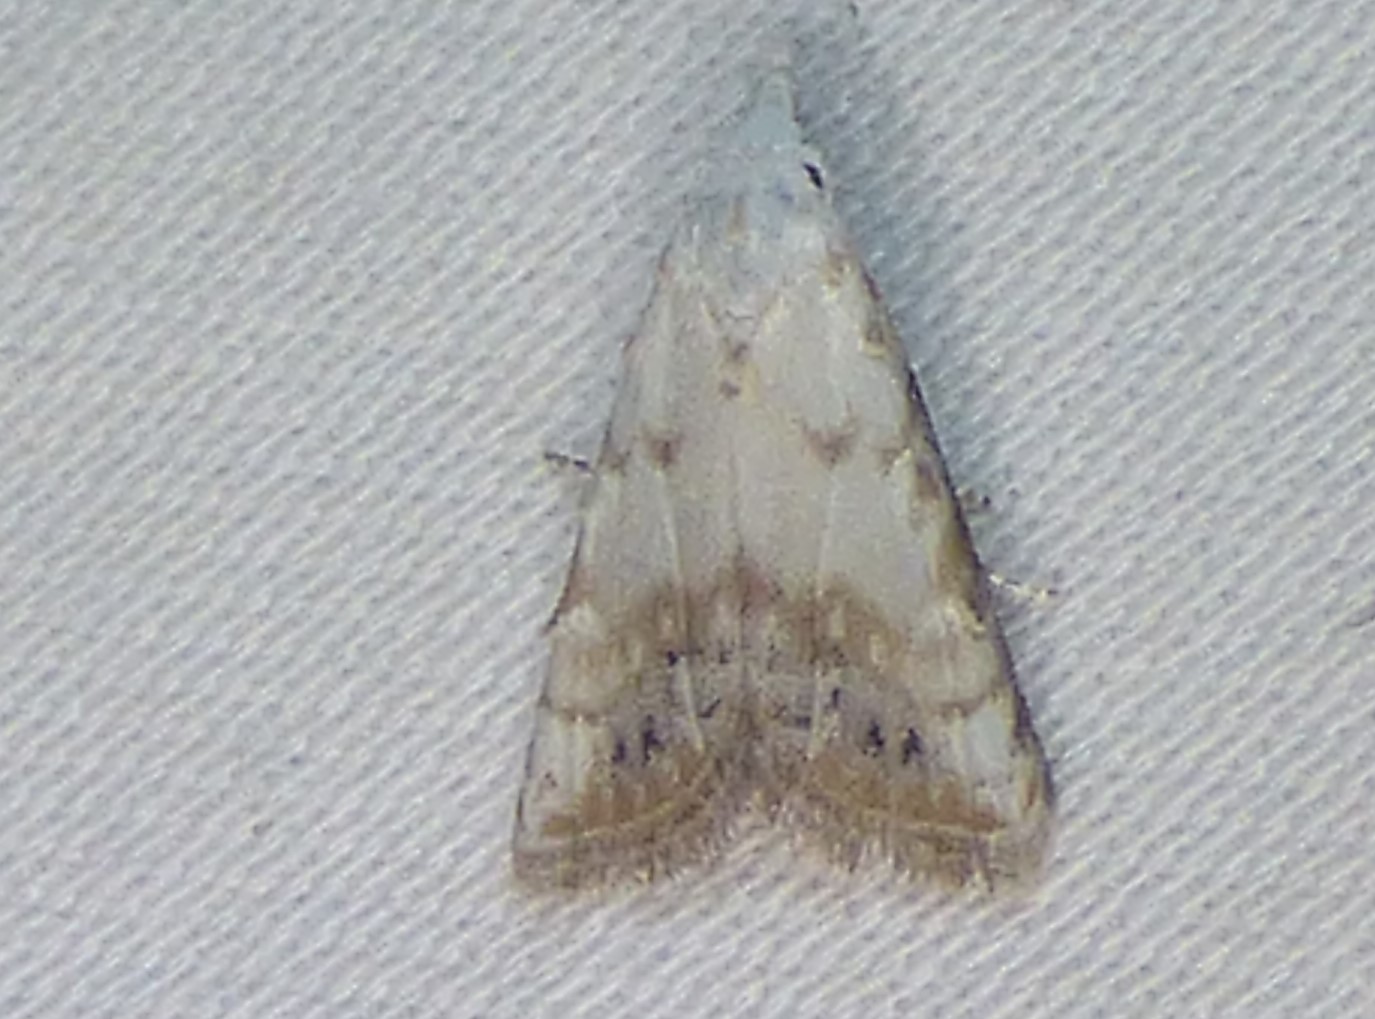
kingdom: Animalia
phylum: Arthropoda
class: Insecta
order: Lepidoptera
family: Nolidae
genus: Nola
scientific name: Nola cereella
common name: Sorghum webworm moth
